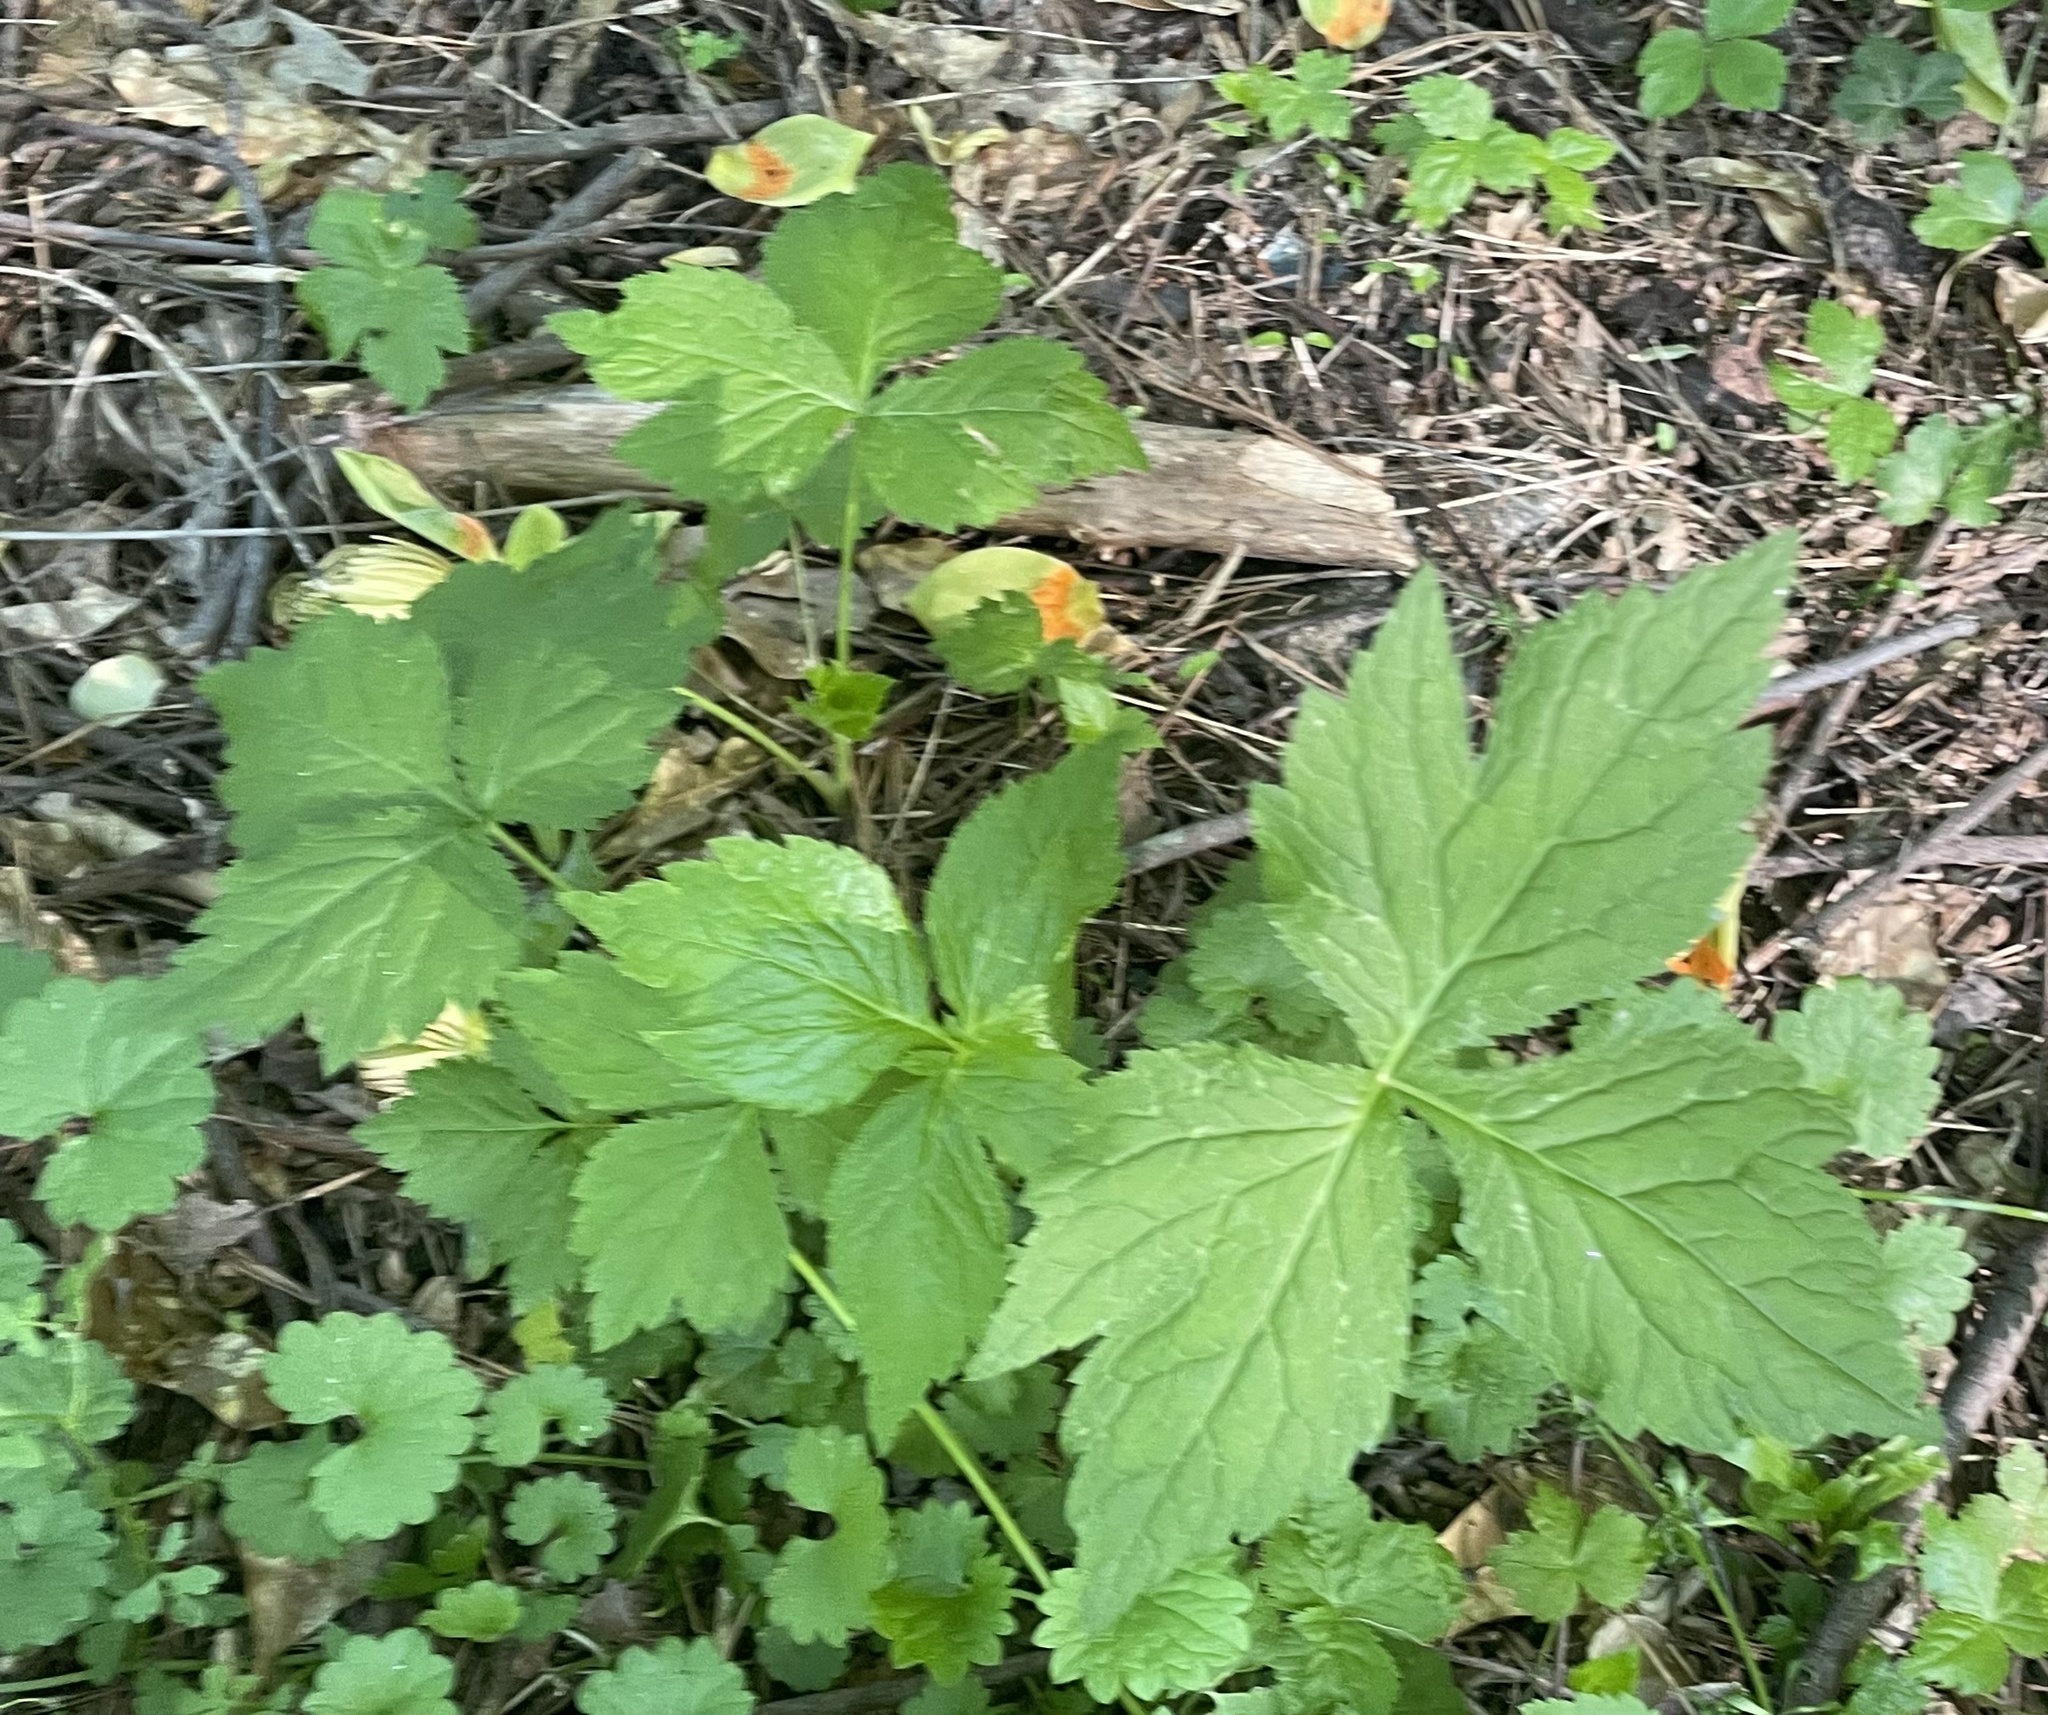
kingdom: Plantae
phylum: Tracheophyta
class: Magnoliopsida
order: Apiales
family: Apiaceae
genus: Cryptotaenia
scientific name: Cryptotaenia canadensis
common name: Honewort
